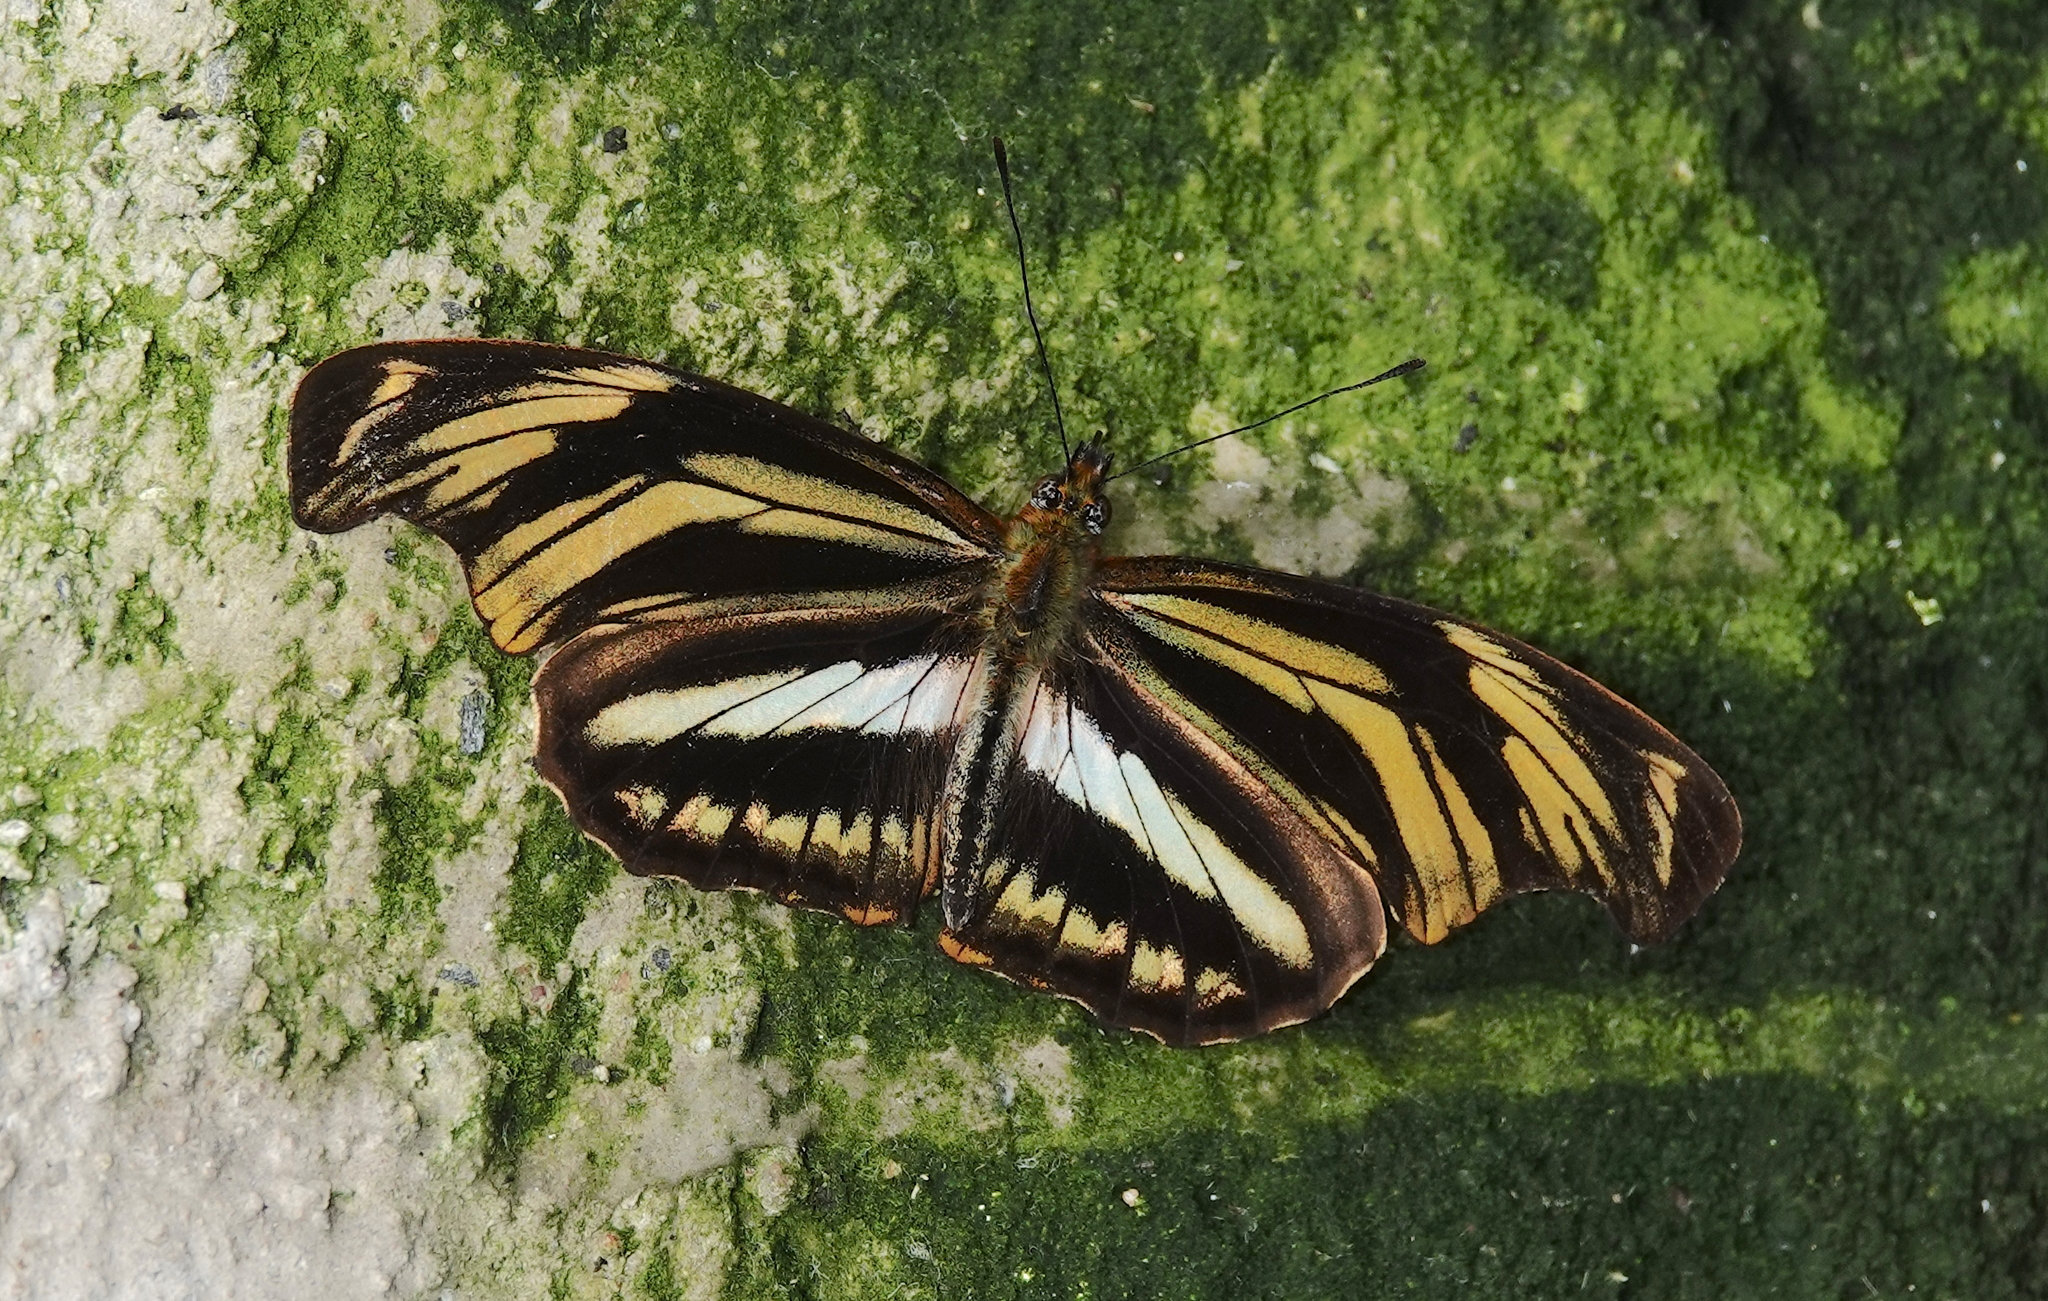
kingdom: Animalia
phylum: Arthropoda
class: Insecta
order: Lepidoptera
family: Nymphalidae
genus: Podotricha
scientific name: Podotricha judith
